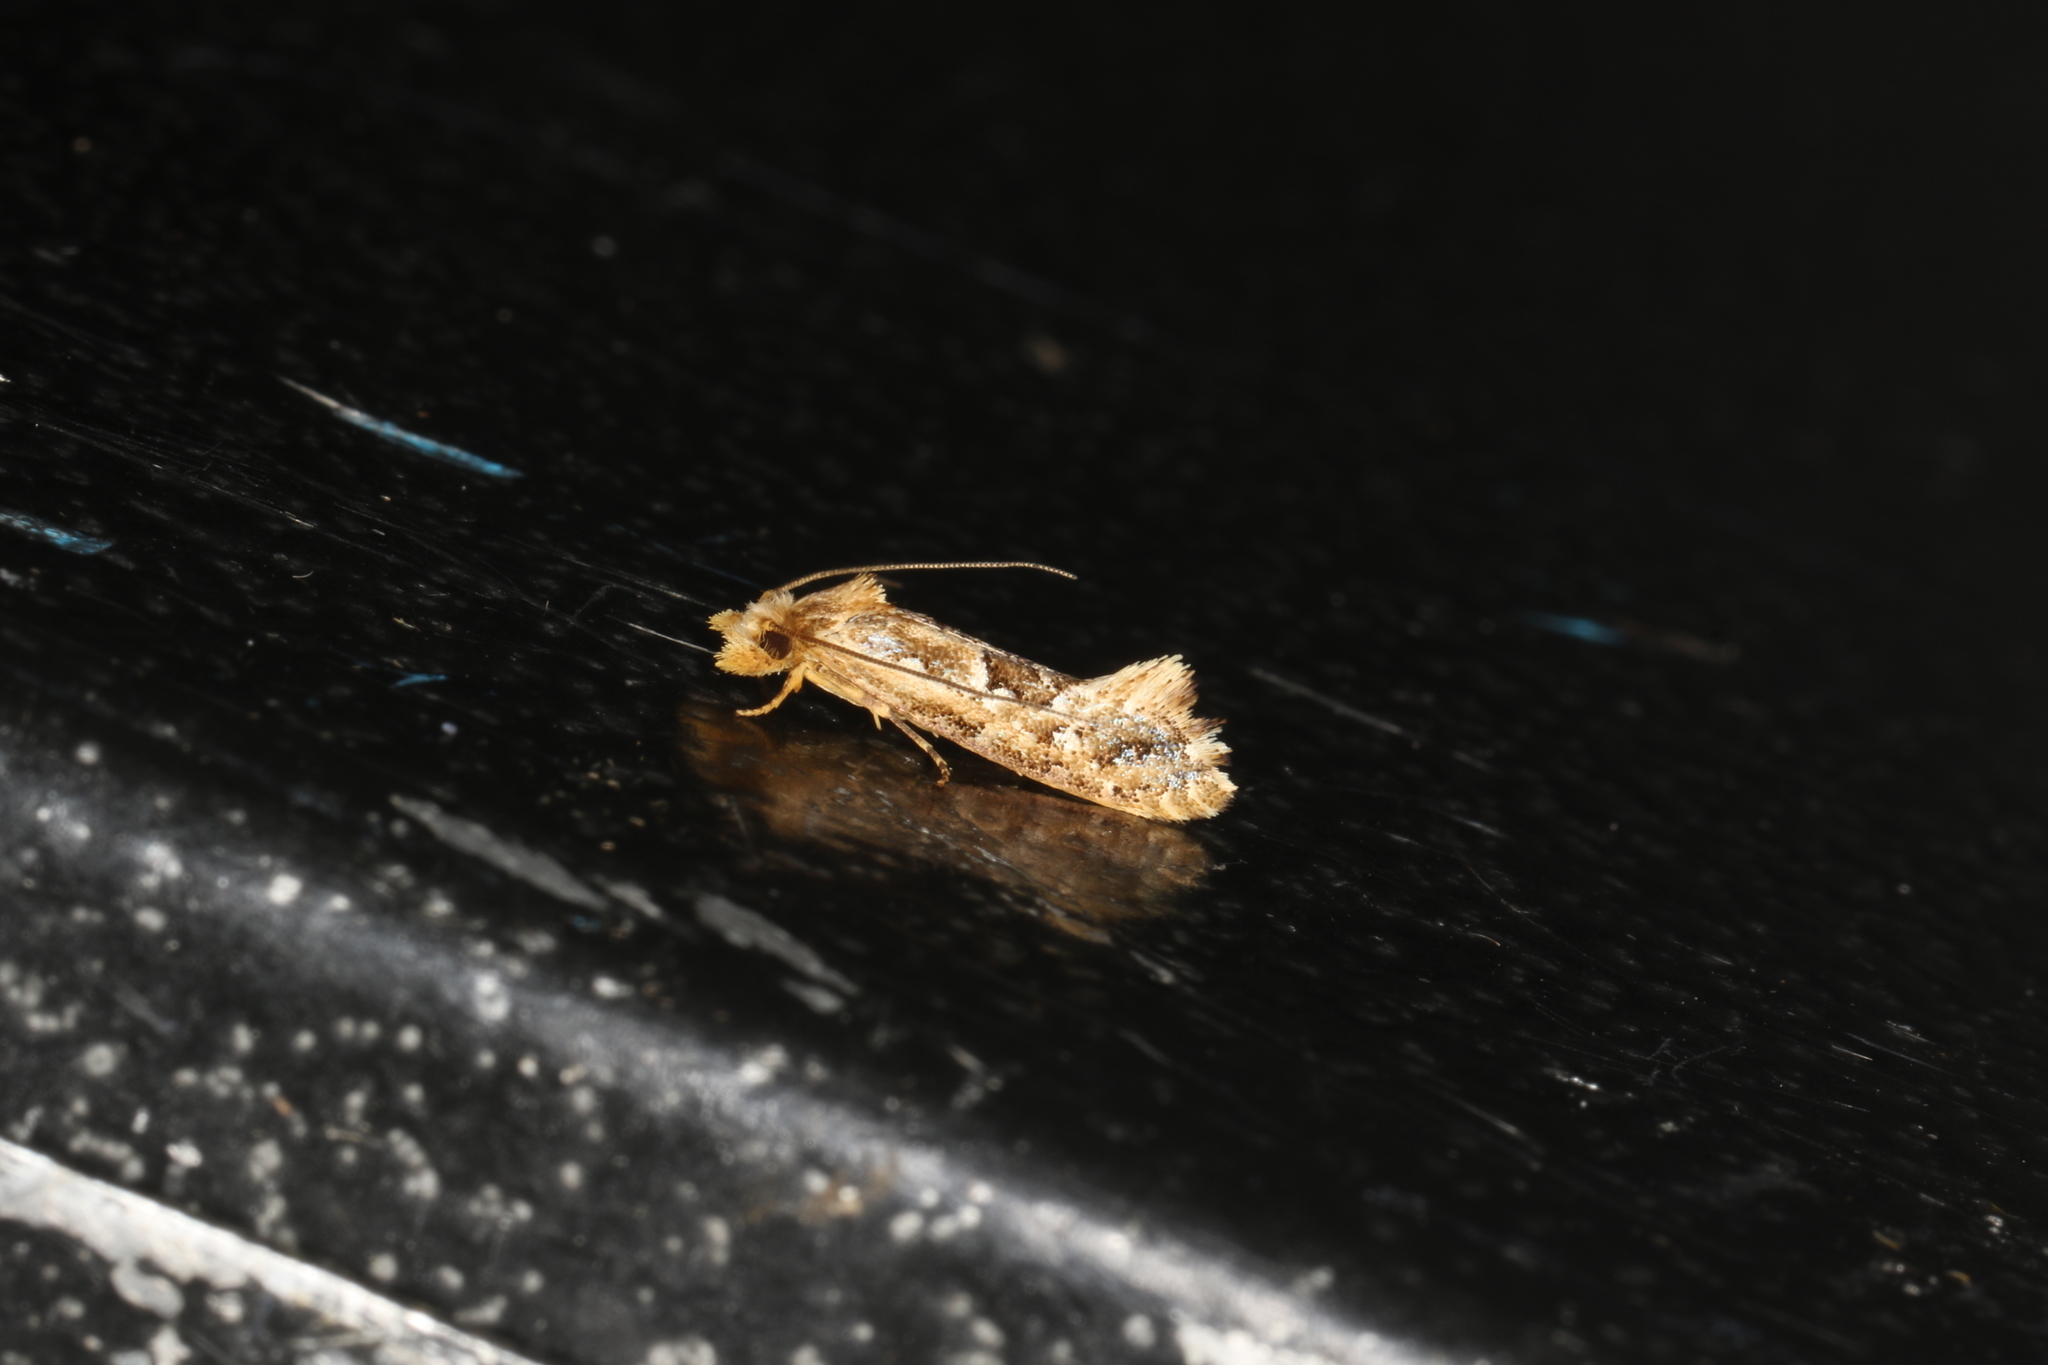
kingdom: Animalia
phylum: Arthropoda
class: Insecta
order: Lepidoptera
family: Tineidae
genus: Moerarchis
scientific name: Moerarchis inconcisella
